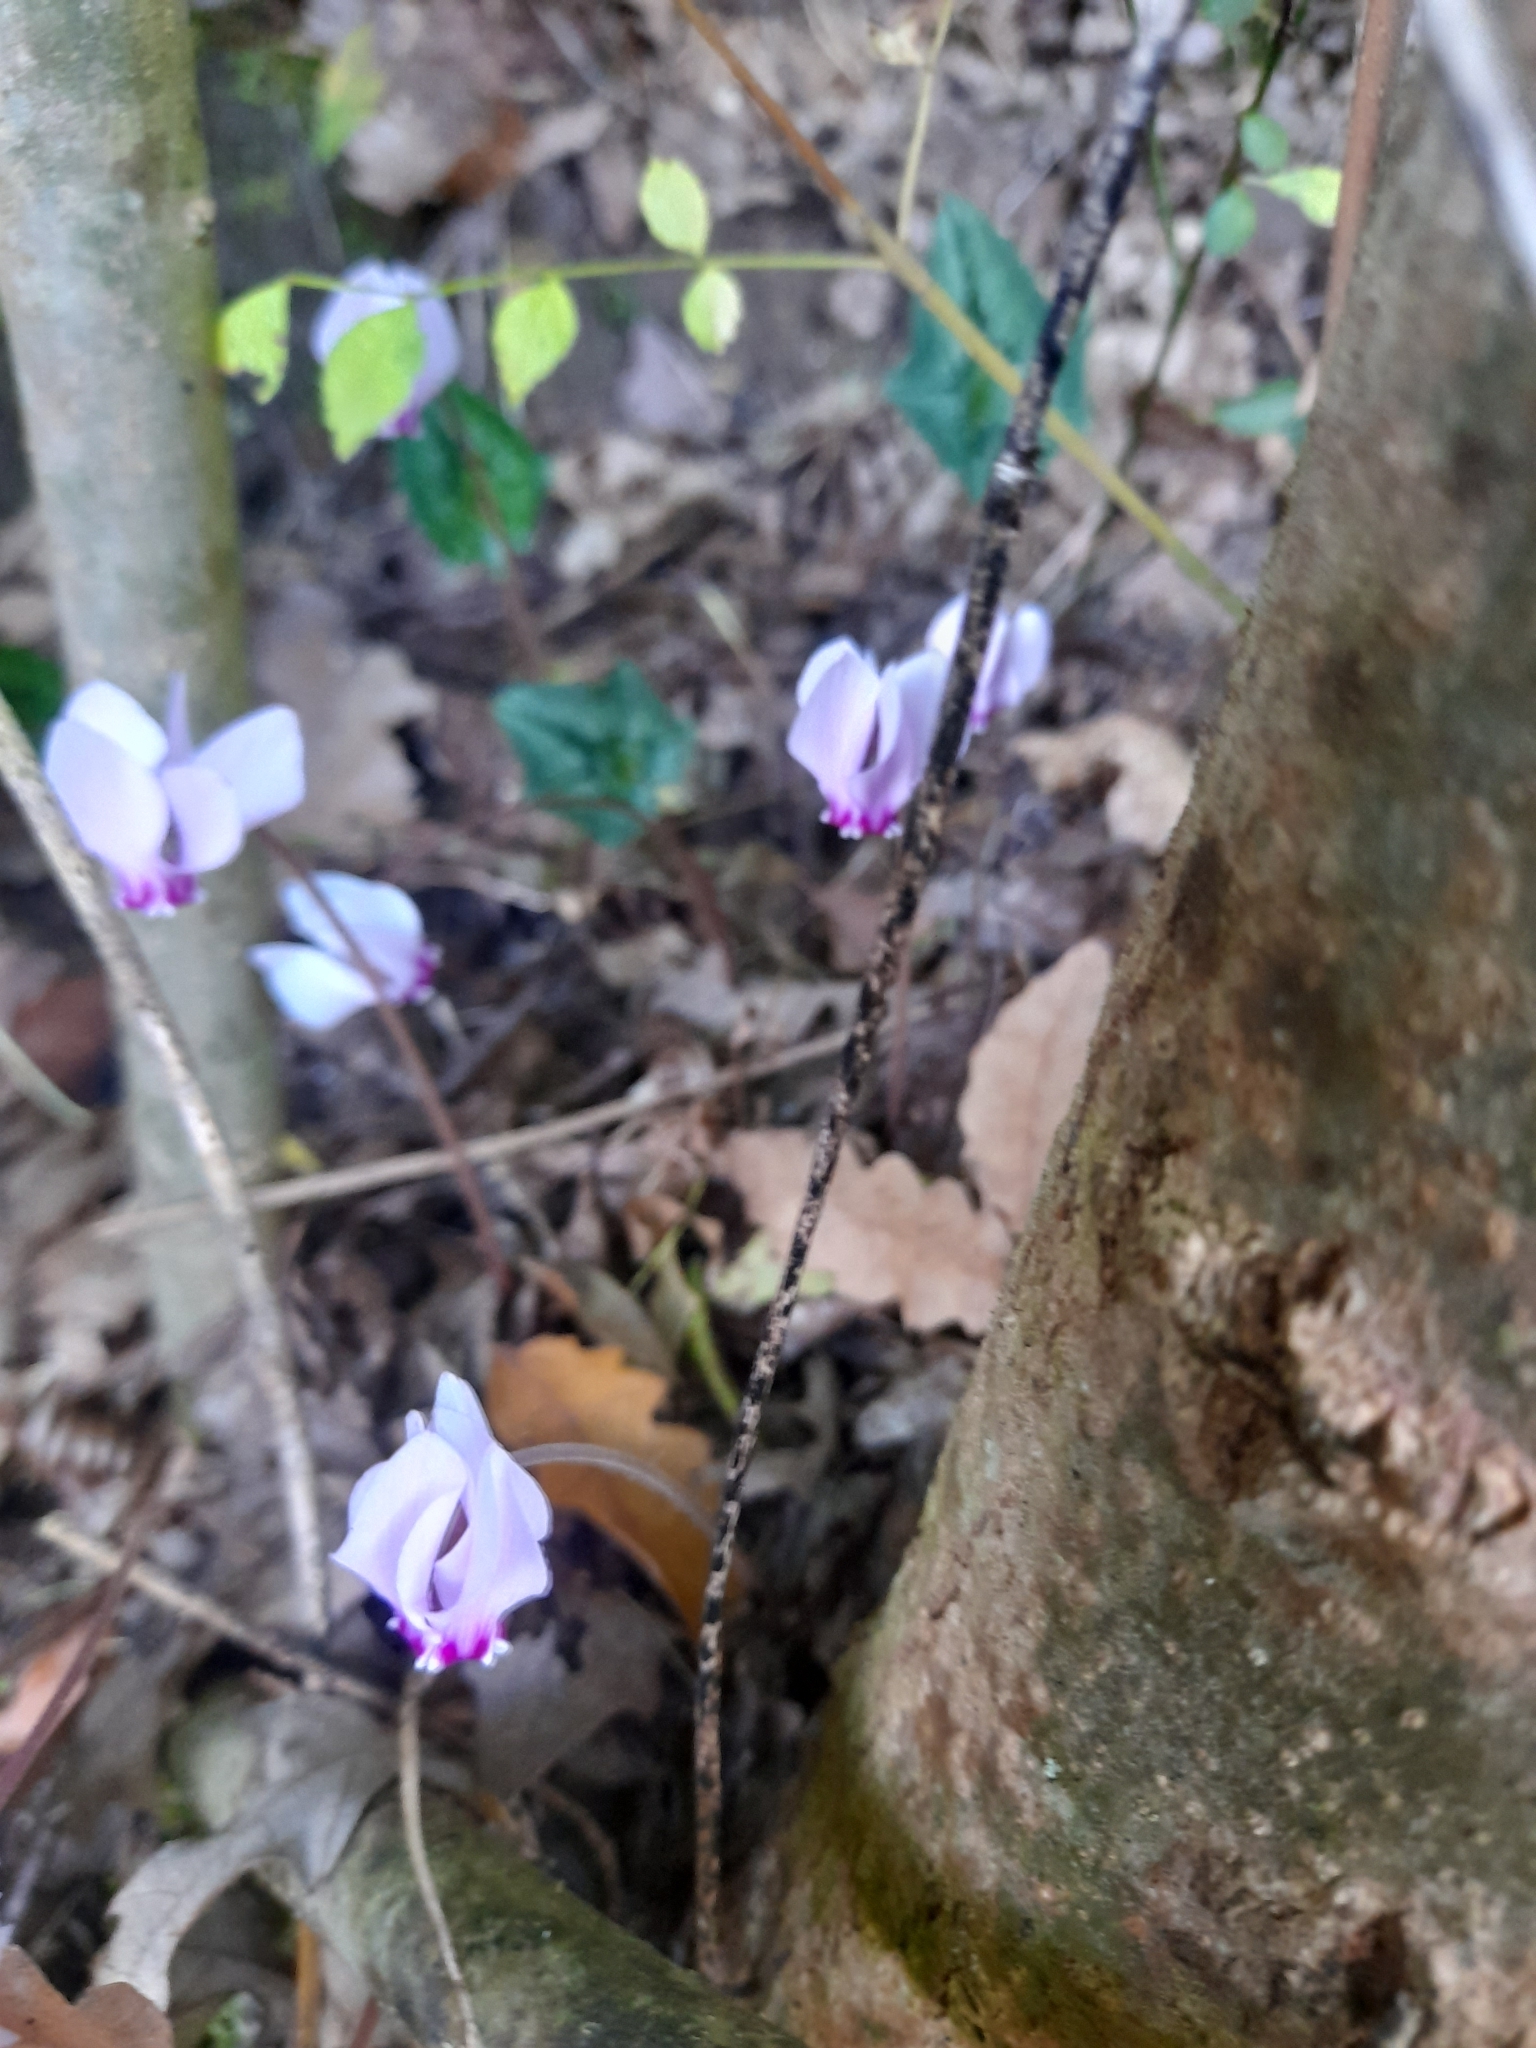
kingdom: Plantae
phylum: Tracheophyta
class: Magnoliopsida
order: Ericales
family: Primulaceae
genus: Cyclamen
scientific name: Cyclamen hederifolium
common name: Sowbread
